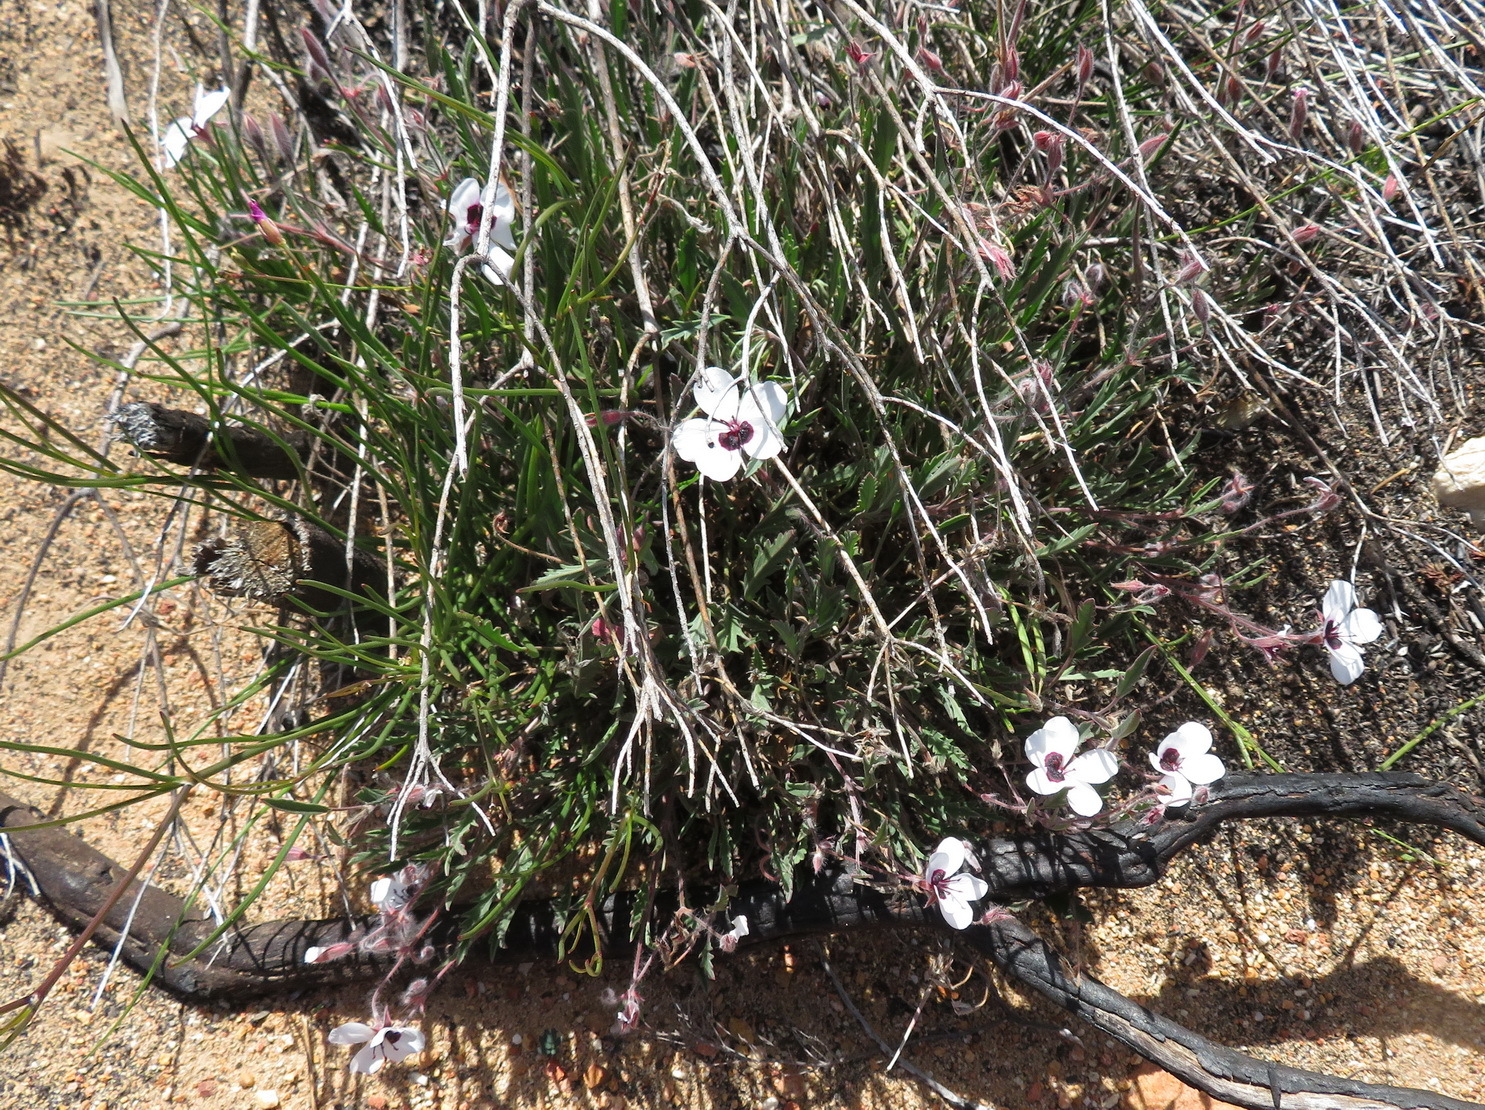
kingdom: Plantae
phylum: Tracheophyta
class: Magnoliopsida
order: Geraniales
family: Geraniaceae
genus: Pelargonium
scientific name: Pelargonium tricolor
